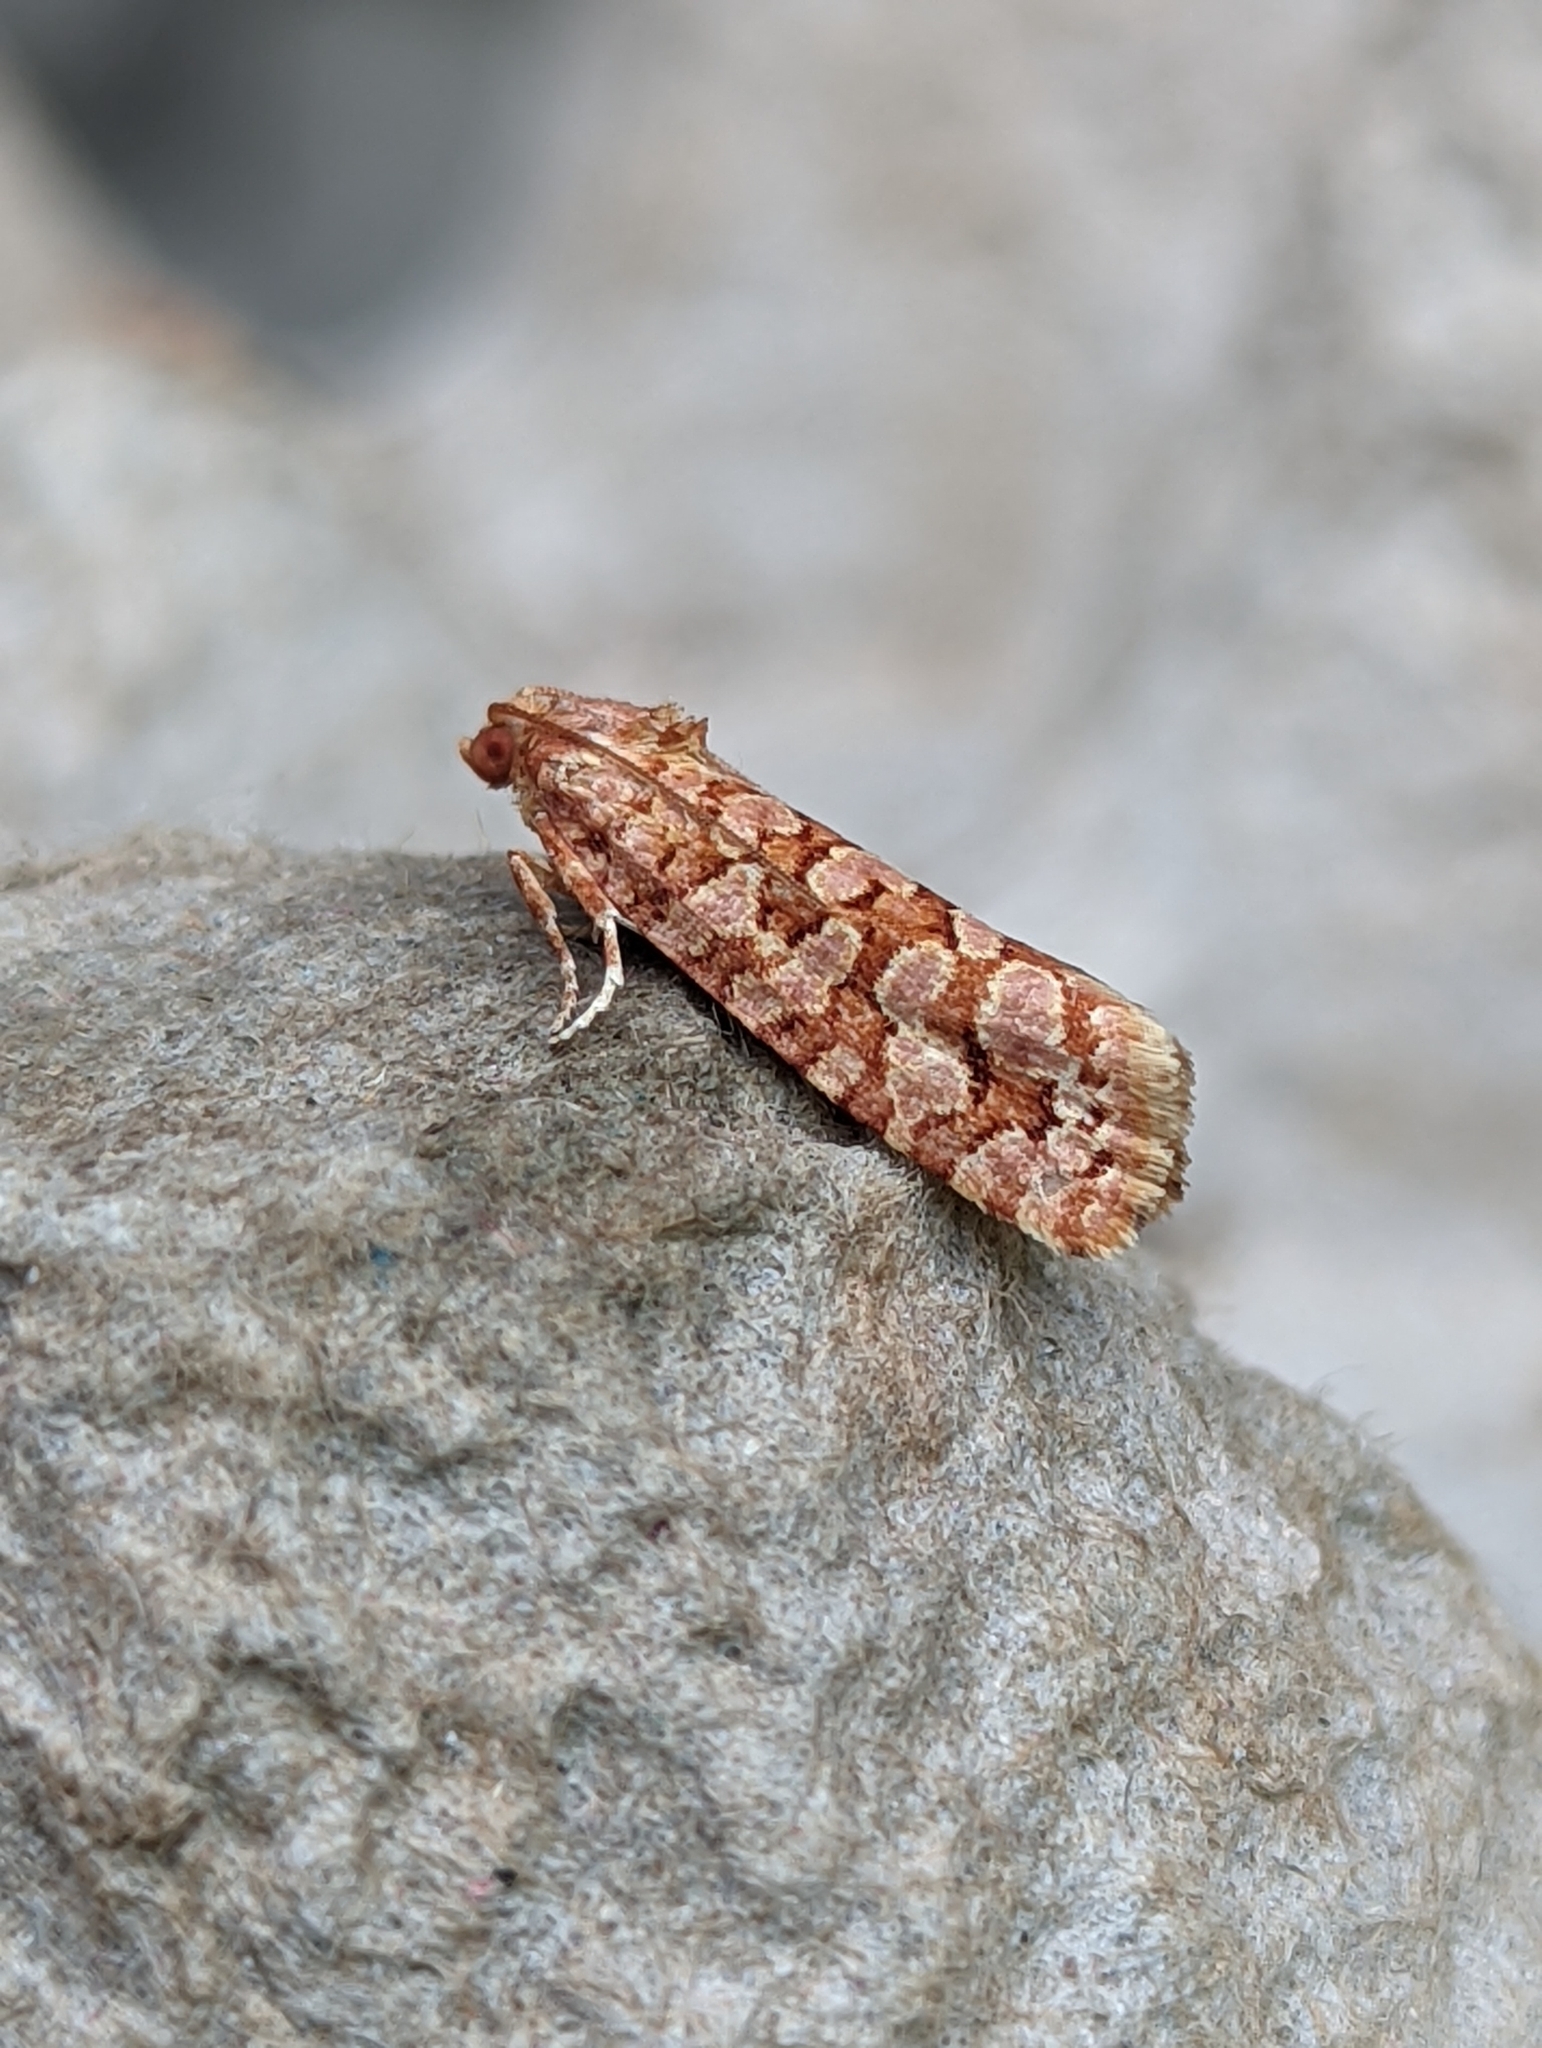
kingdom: Animalia
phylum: Arthropoda
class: Insecta
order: Lepidoptera
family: Tortricidae
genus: Lozotaeniodes
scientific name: Lozotaeniodes formosana
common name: Orange pine twist
